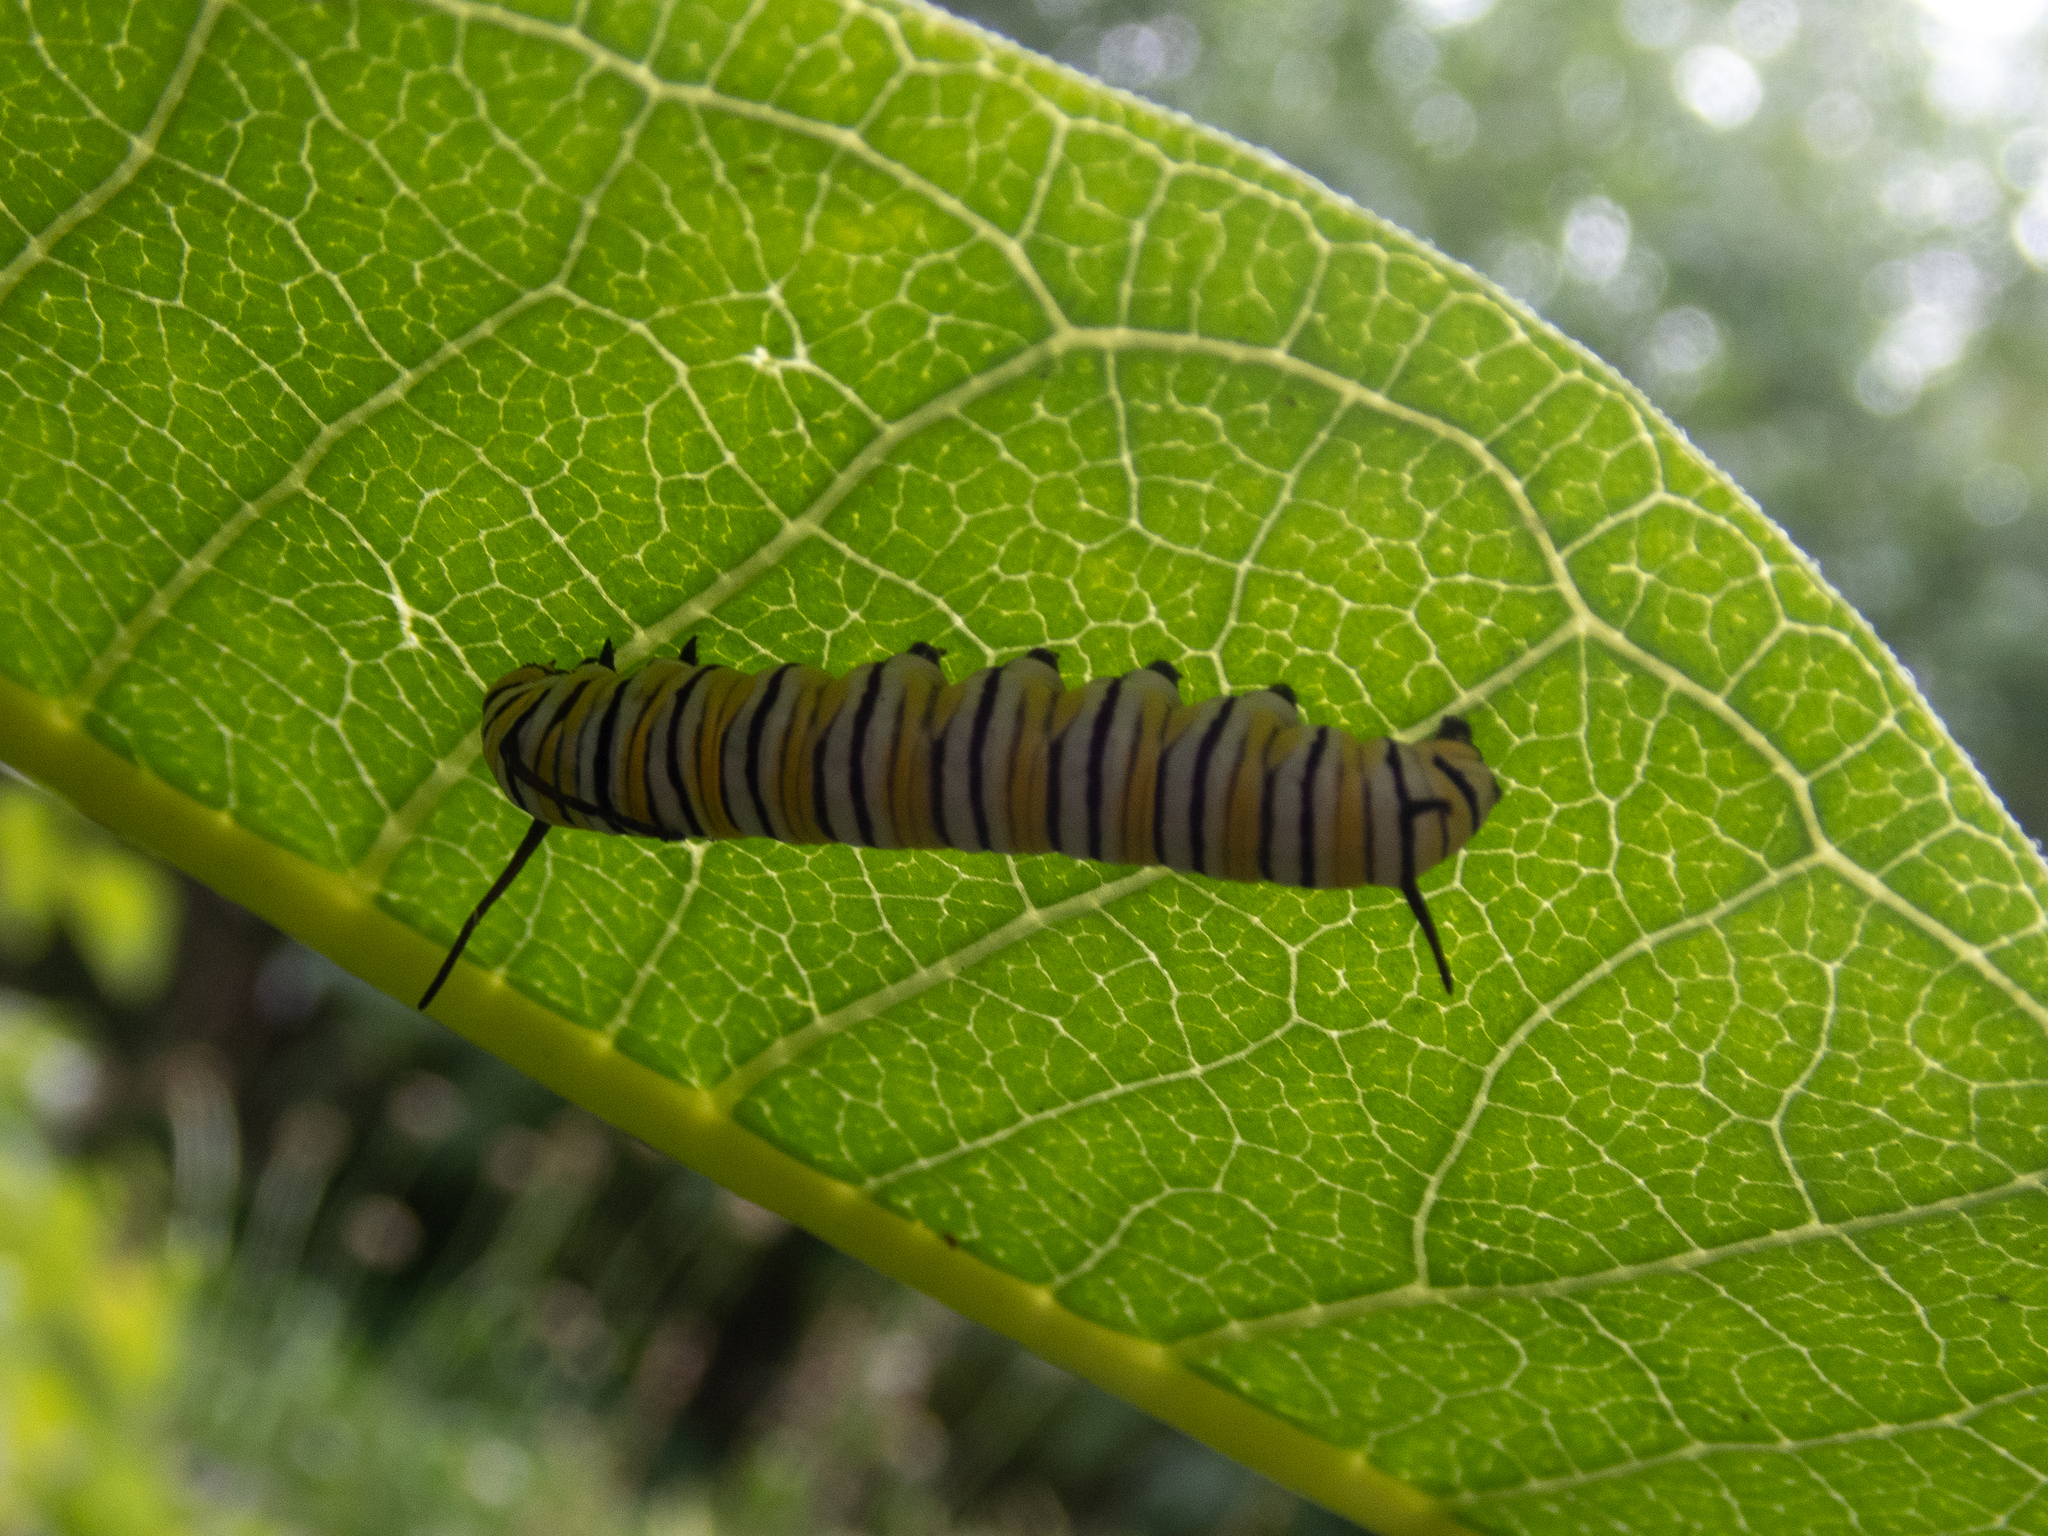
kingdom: Animalia
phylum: Arthropoda
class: Insecta
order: Lepidoptera
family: Nymphalidae
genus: Danaus
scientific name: Danaus plexippus
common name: Monarch
